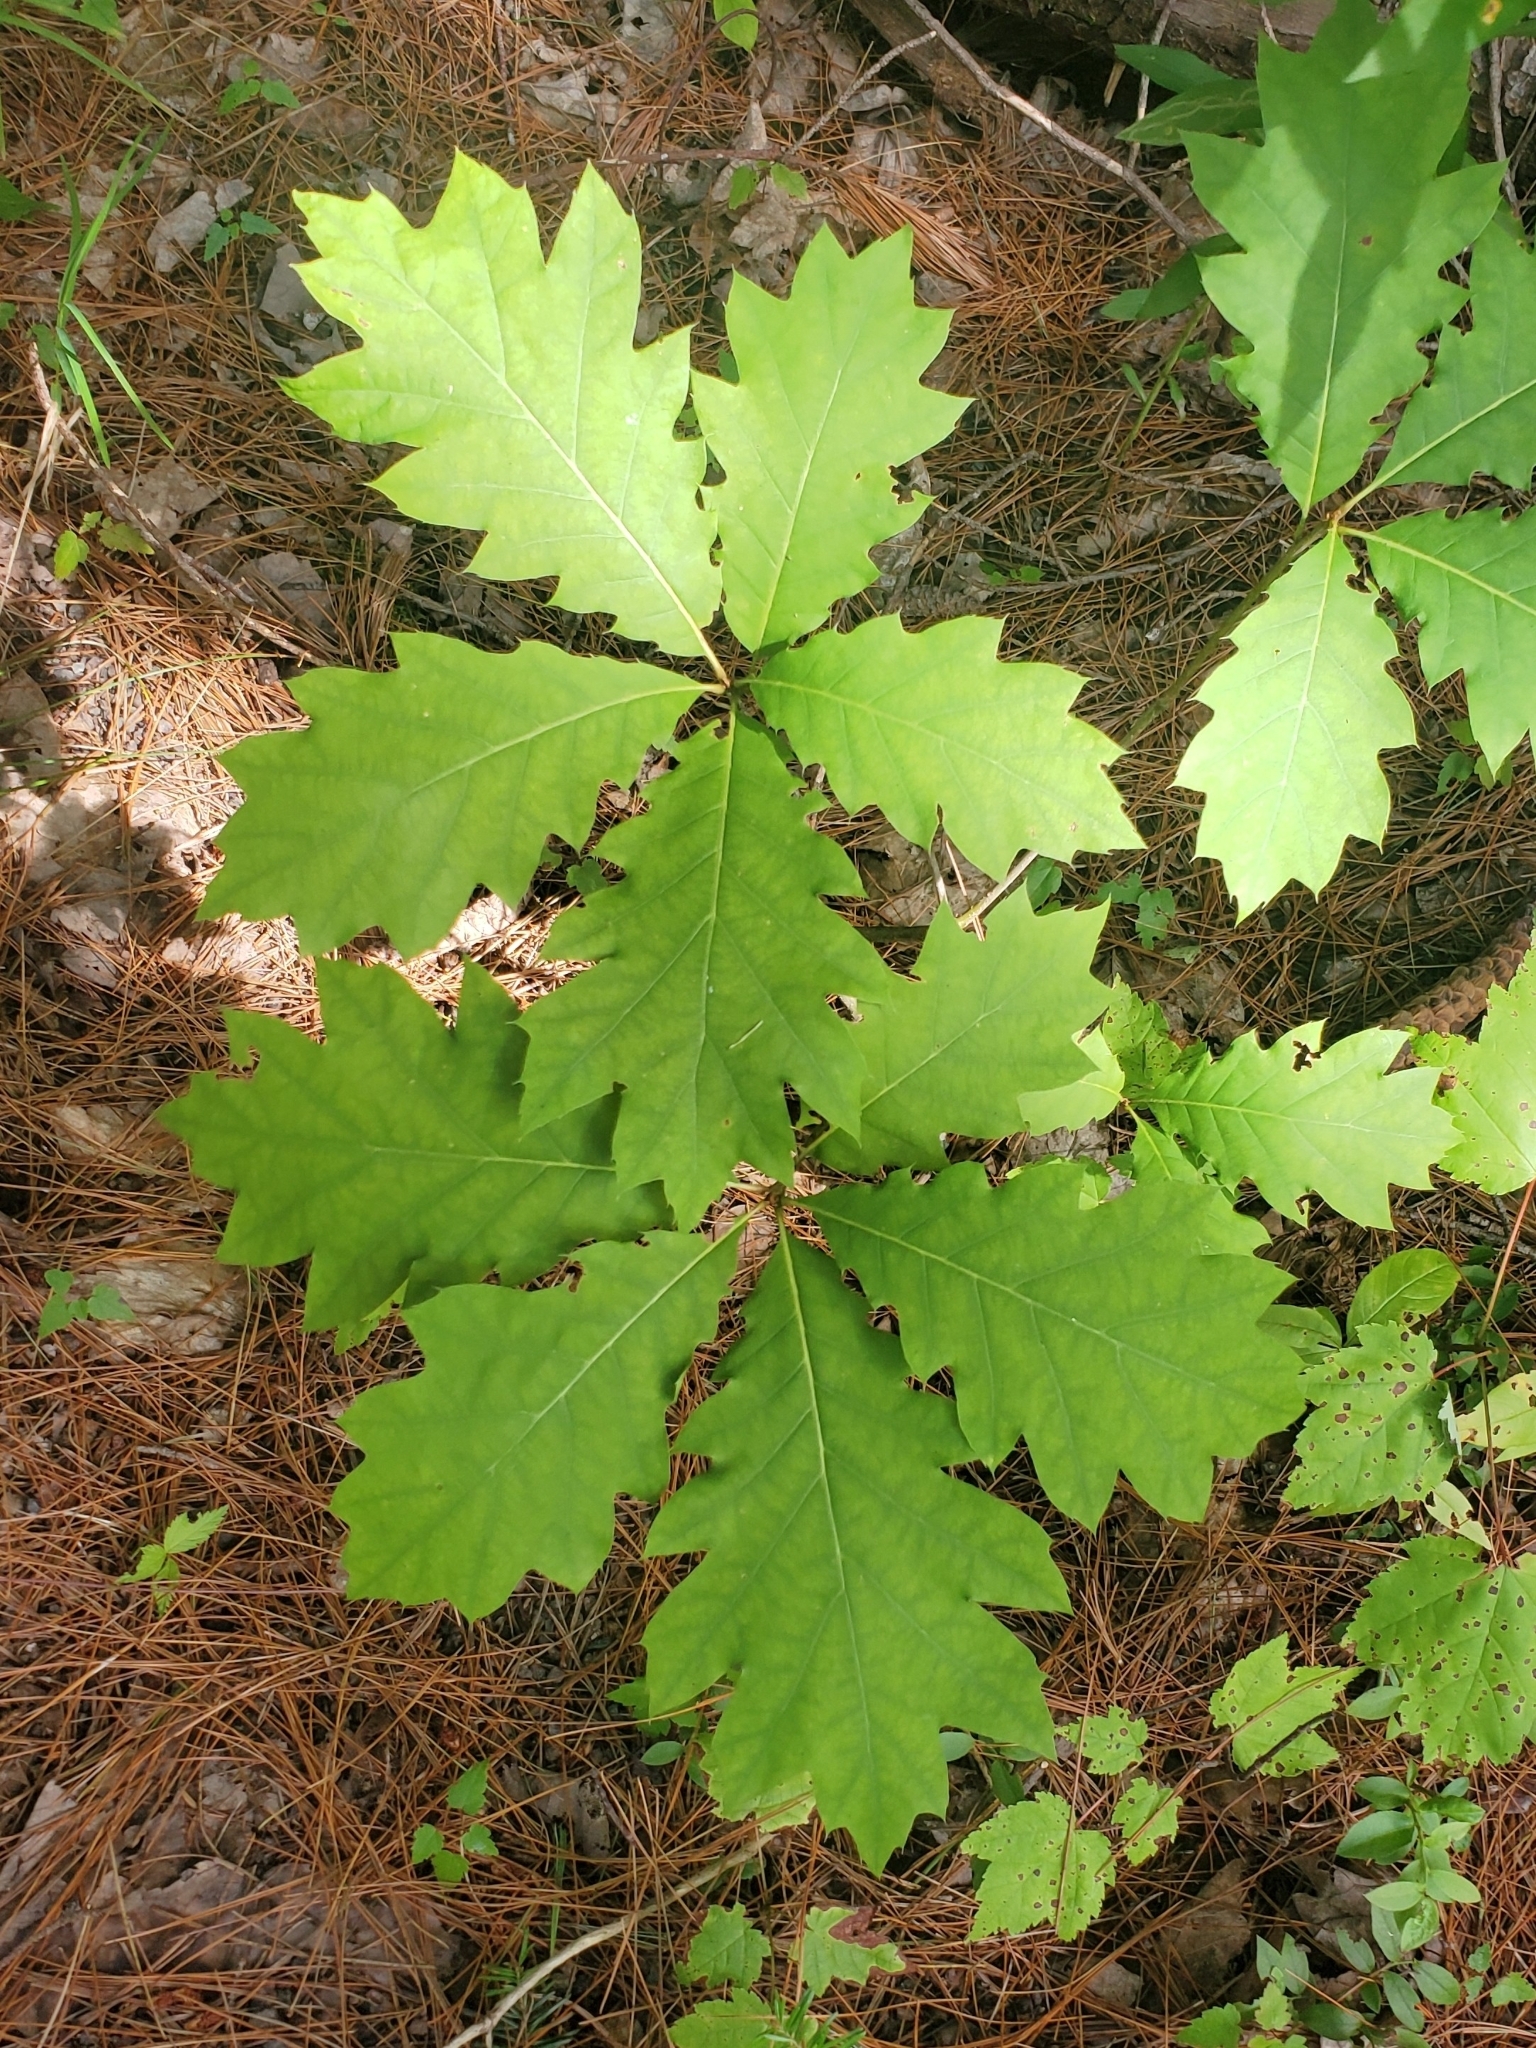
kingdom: Plantae
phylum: Tracheophyta
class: Magnoliopsida
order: Fagales
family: Fagaceae
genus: Quercus
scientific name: Quercus rubra
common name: Red oak
